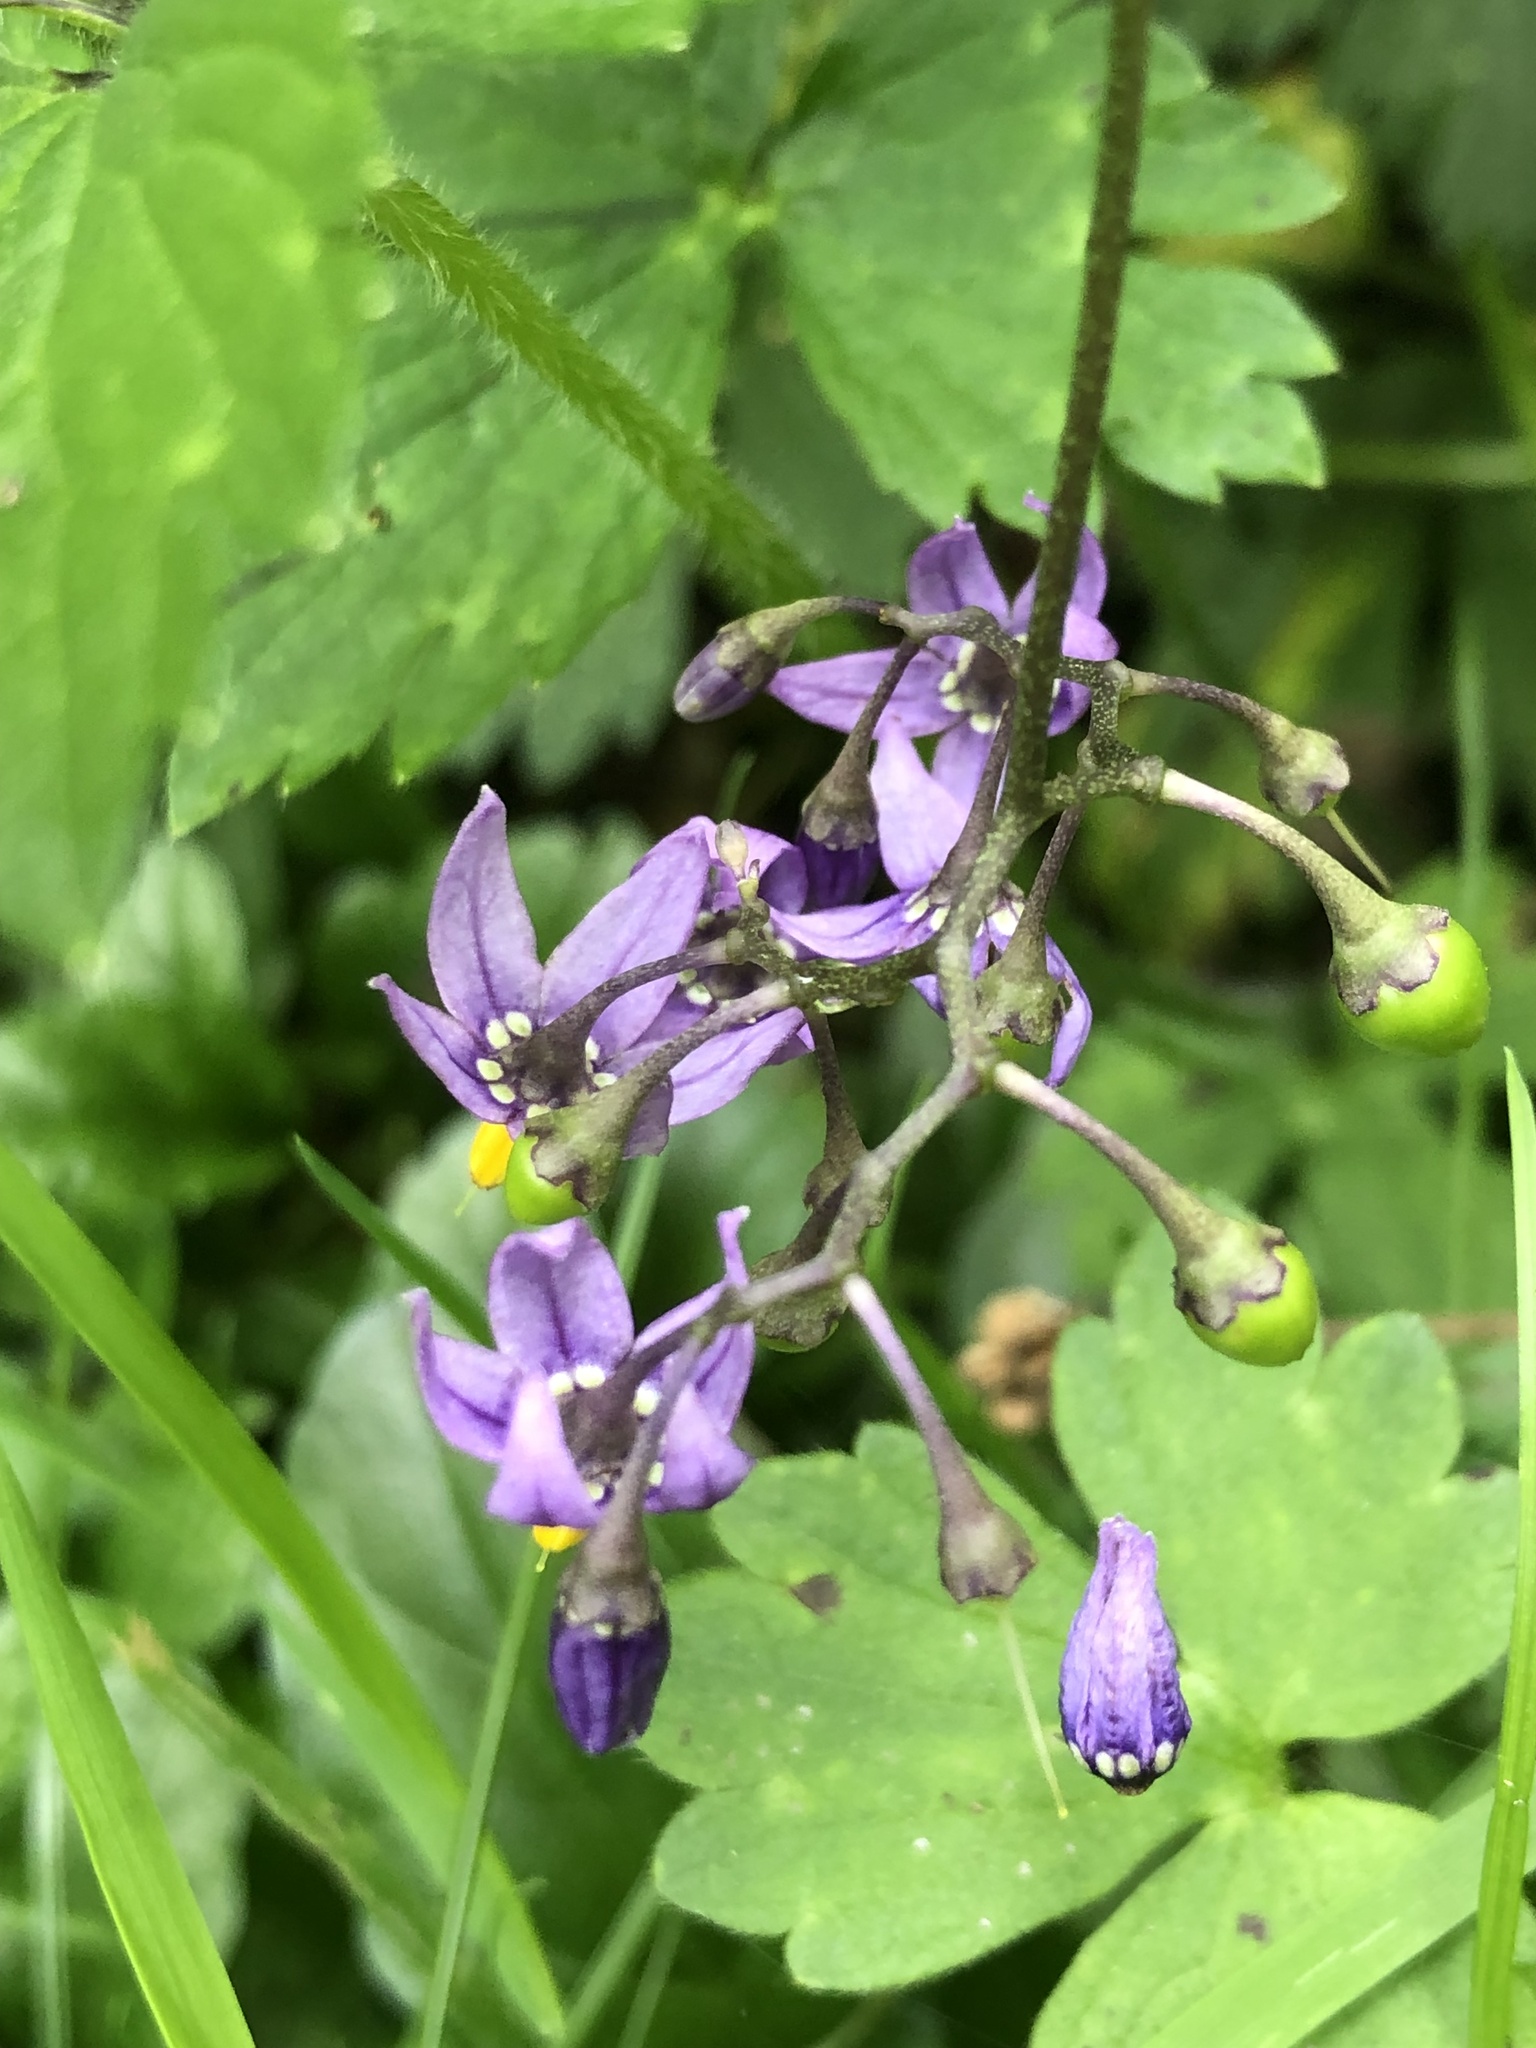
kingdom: Plantae
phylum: Tracheophyta
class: Magnoliopsida
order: Solanales
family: Solanaceae
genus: Solanum
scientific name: Solanum dulcamara
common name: Climbing nightshade
